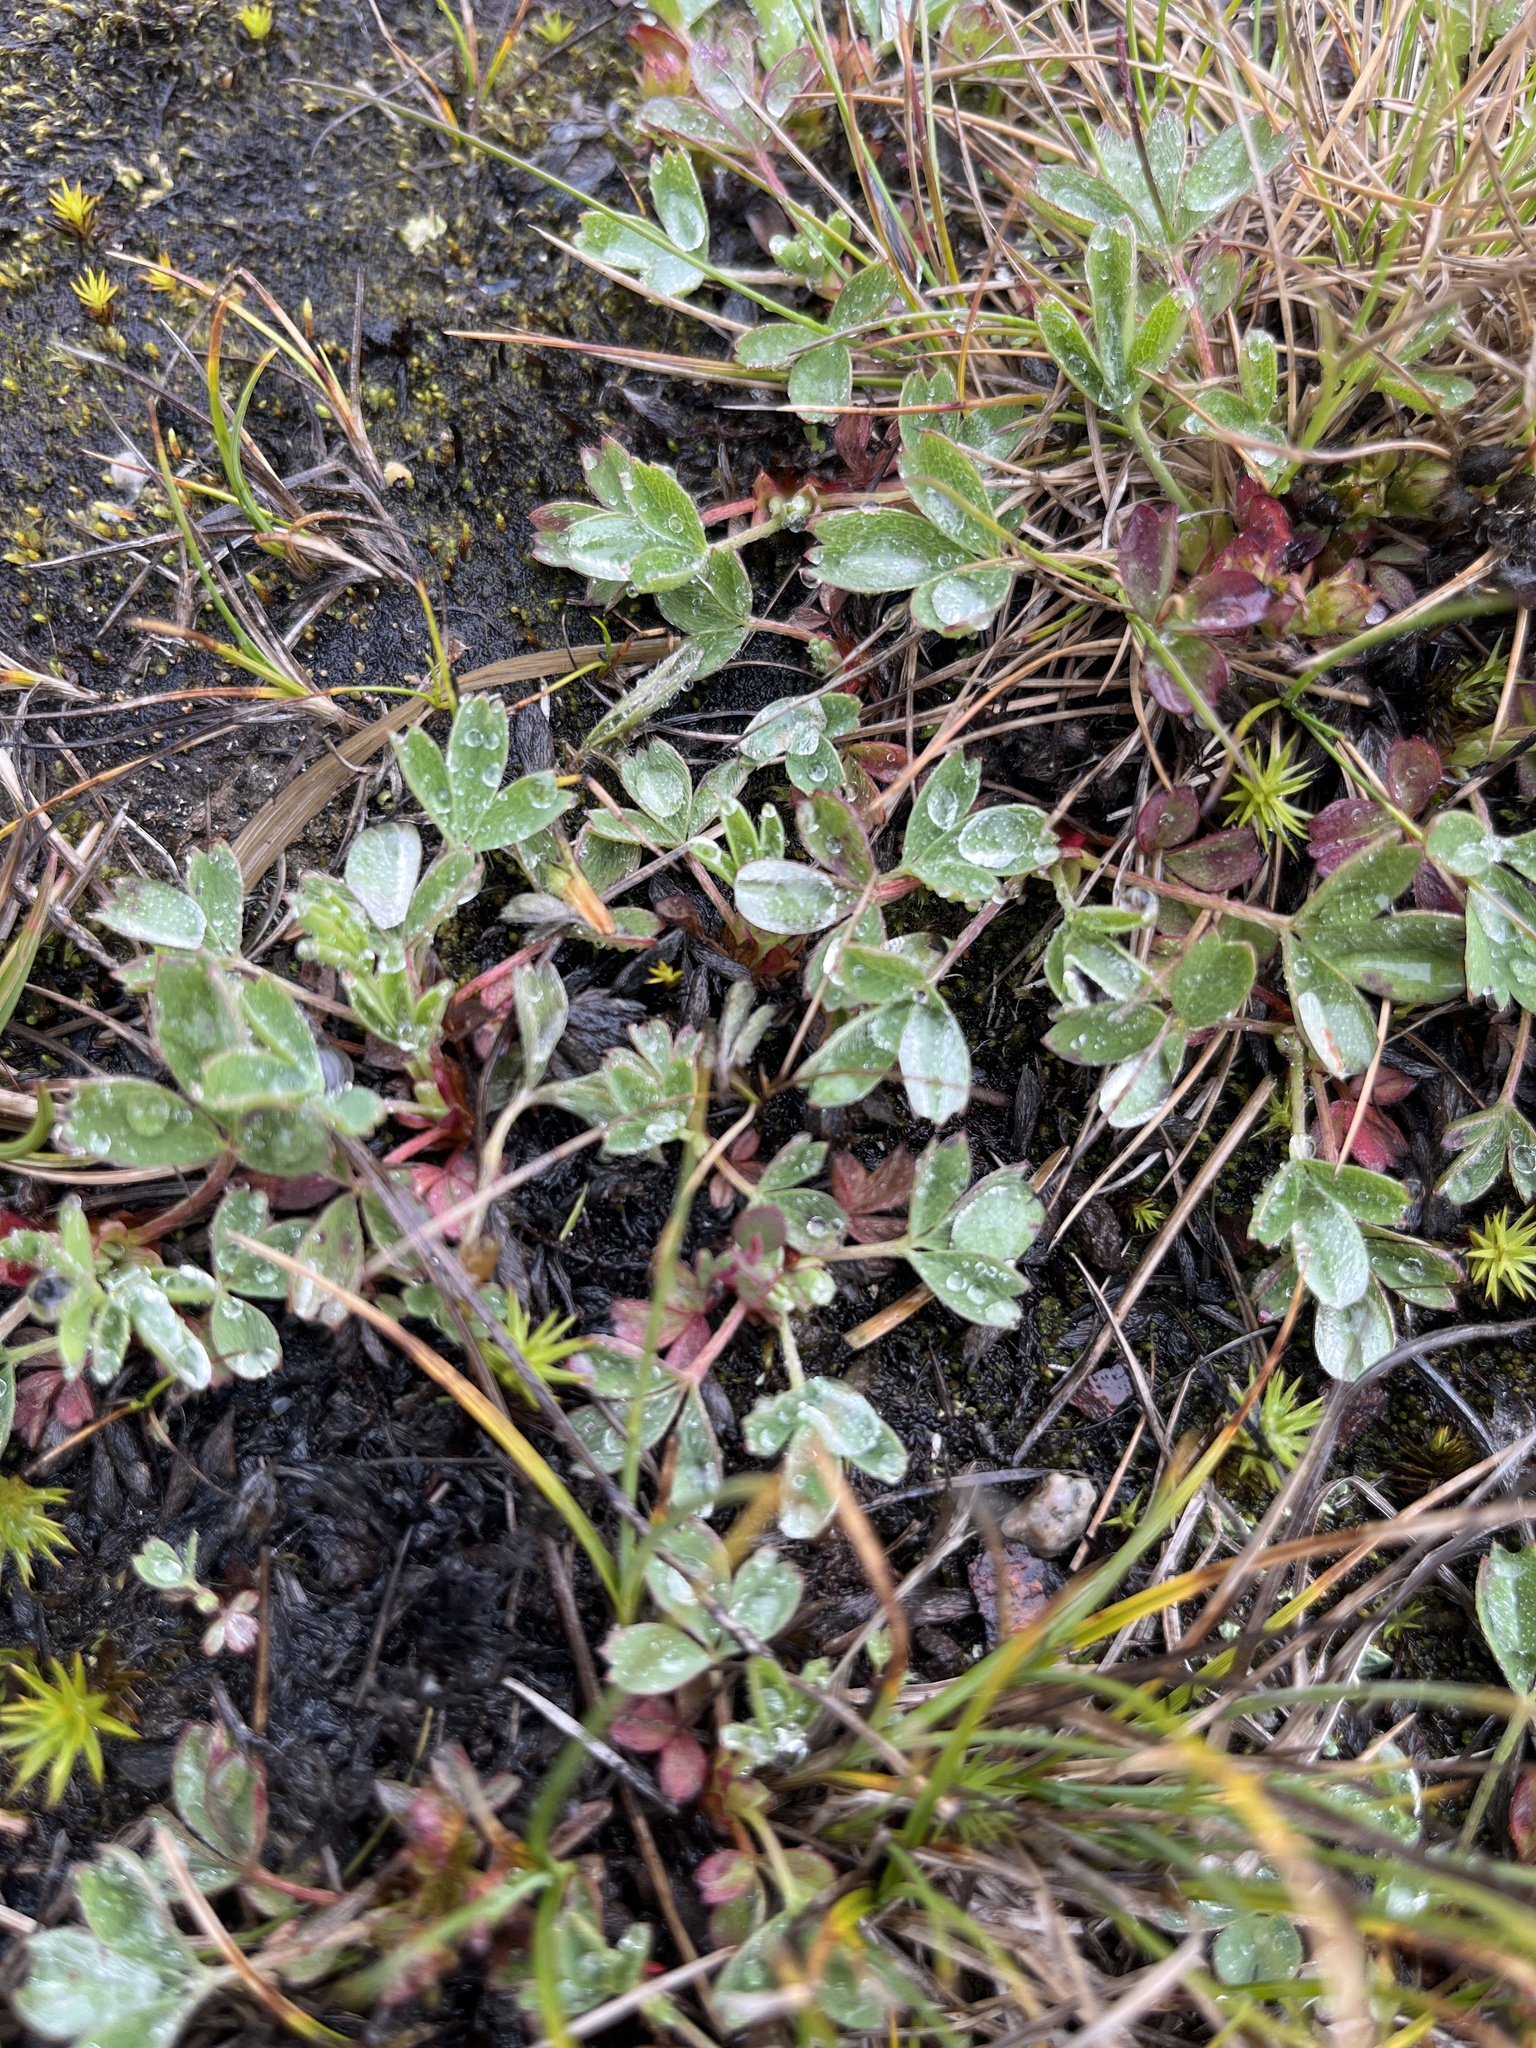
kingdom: Plantae
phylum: Tracheophyta
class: Magnoliopsida
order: Rosales
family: Rosaceae
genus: Sibbaldia
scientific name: Sibbaldia procumbens
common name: Creeping sibbaldia
